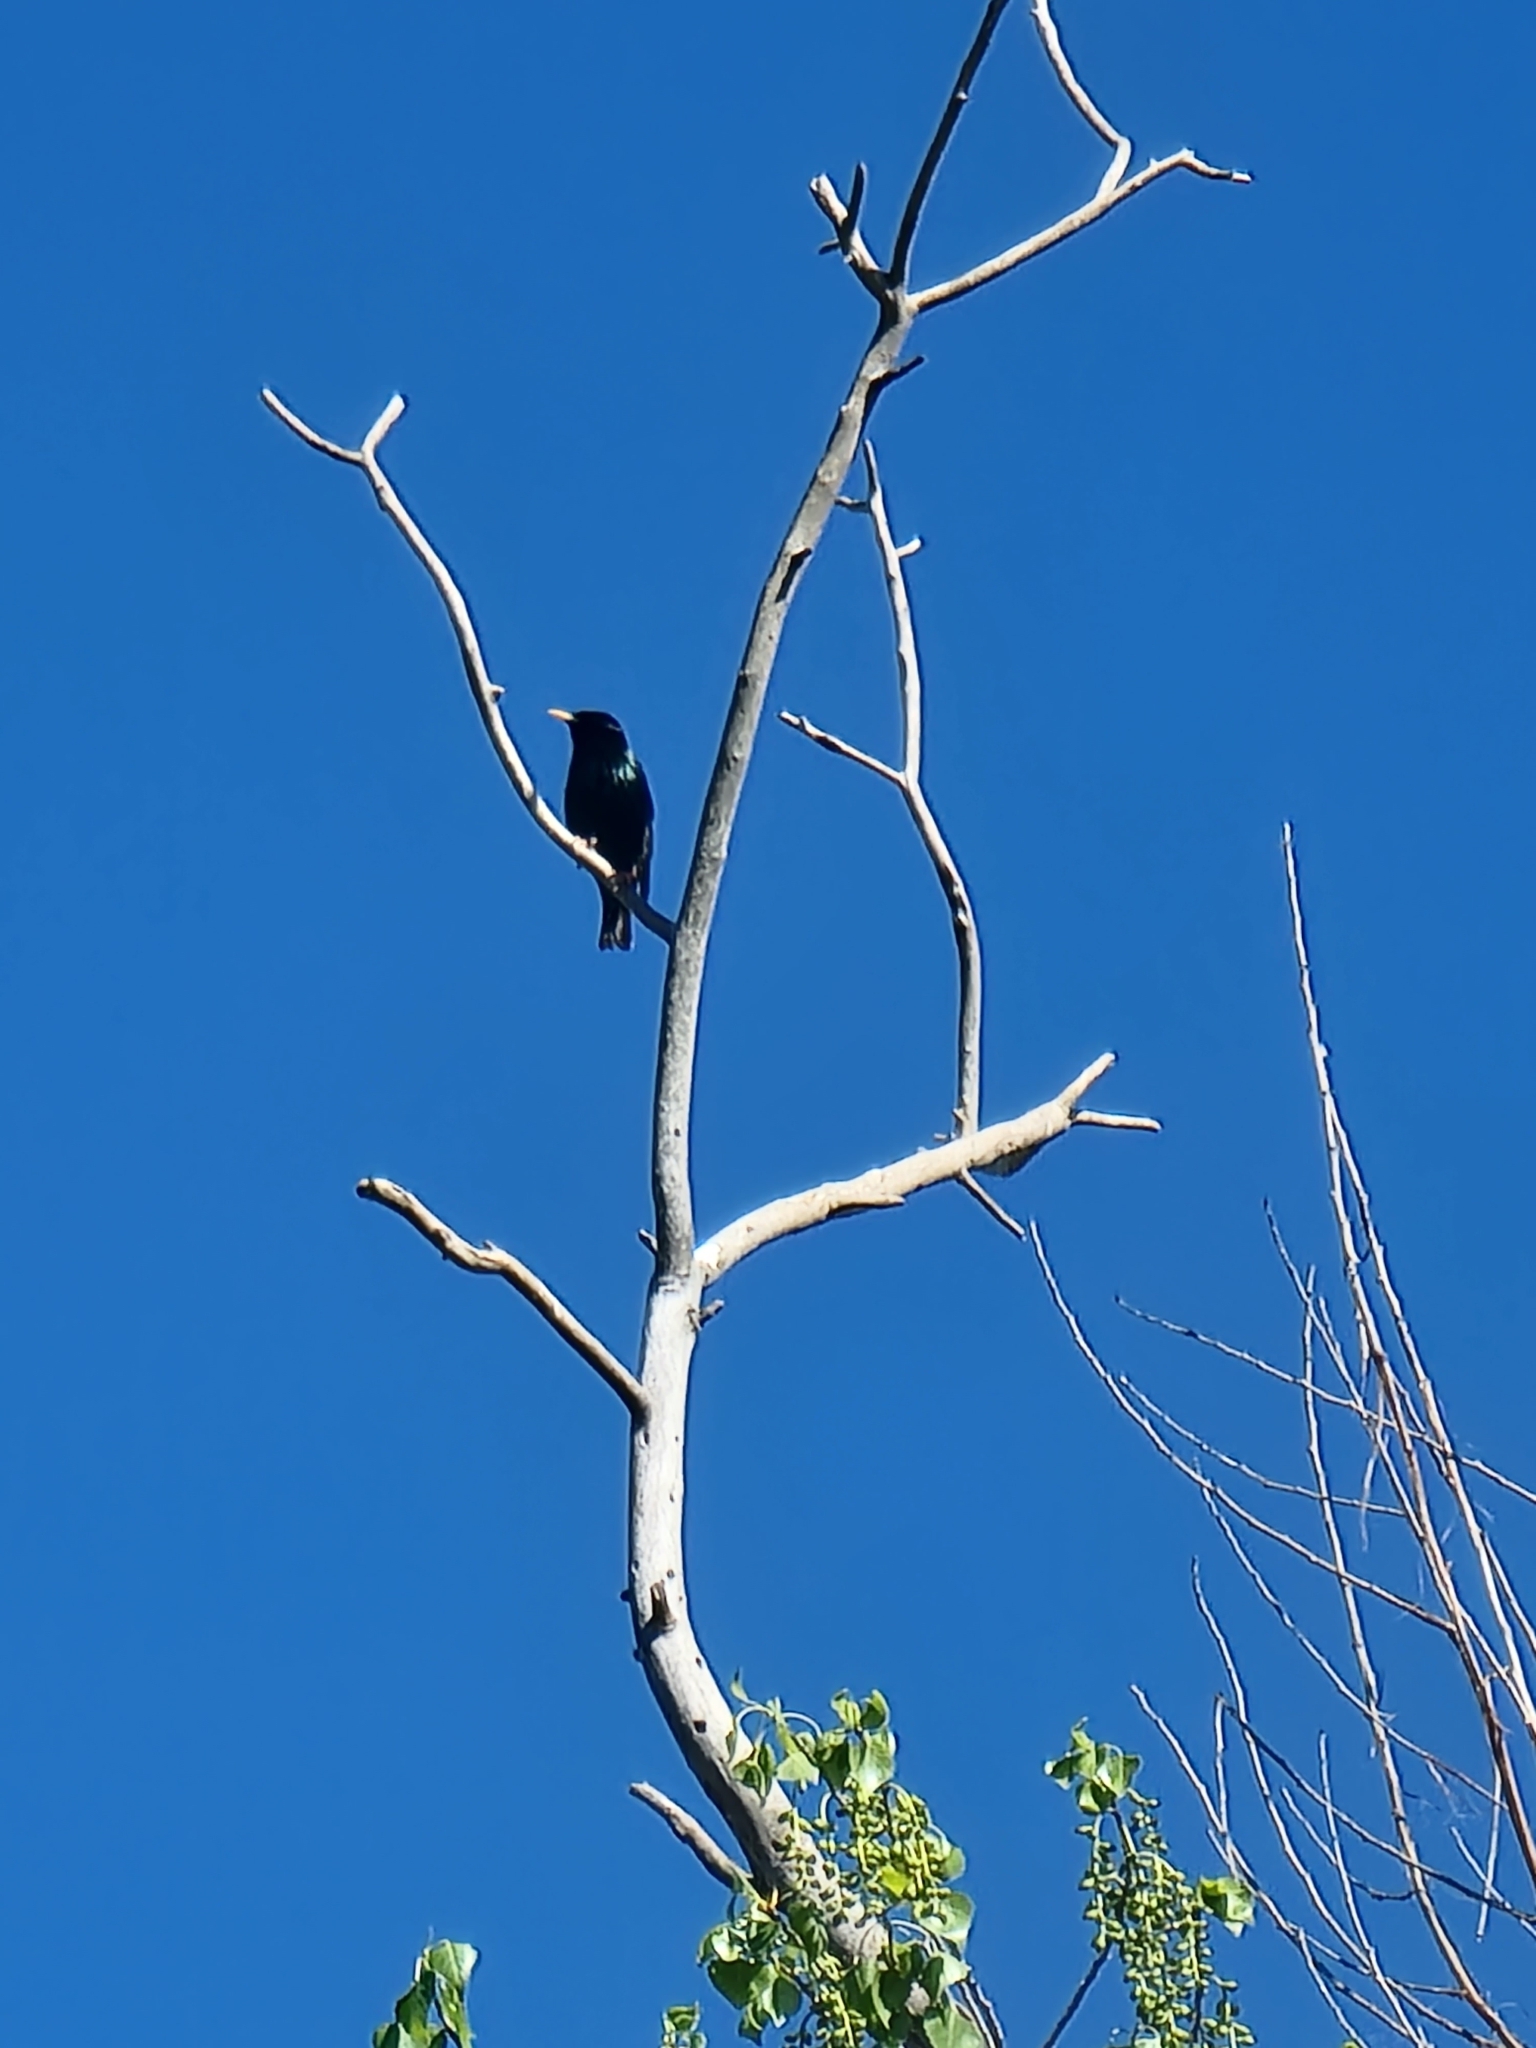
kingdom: Animalia
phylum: Chordata
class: Aves
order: Passeriformes
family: Sturnidae
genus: Sturnus
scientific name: Sturnus vulgaris
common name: Common starling
